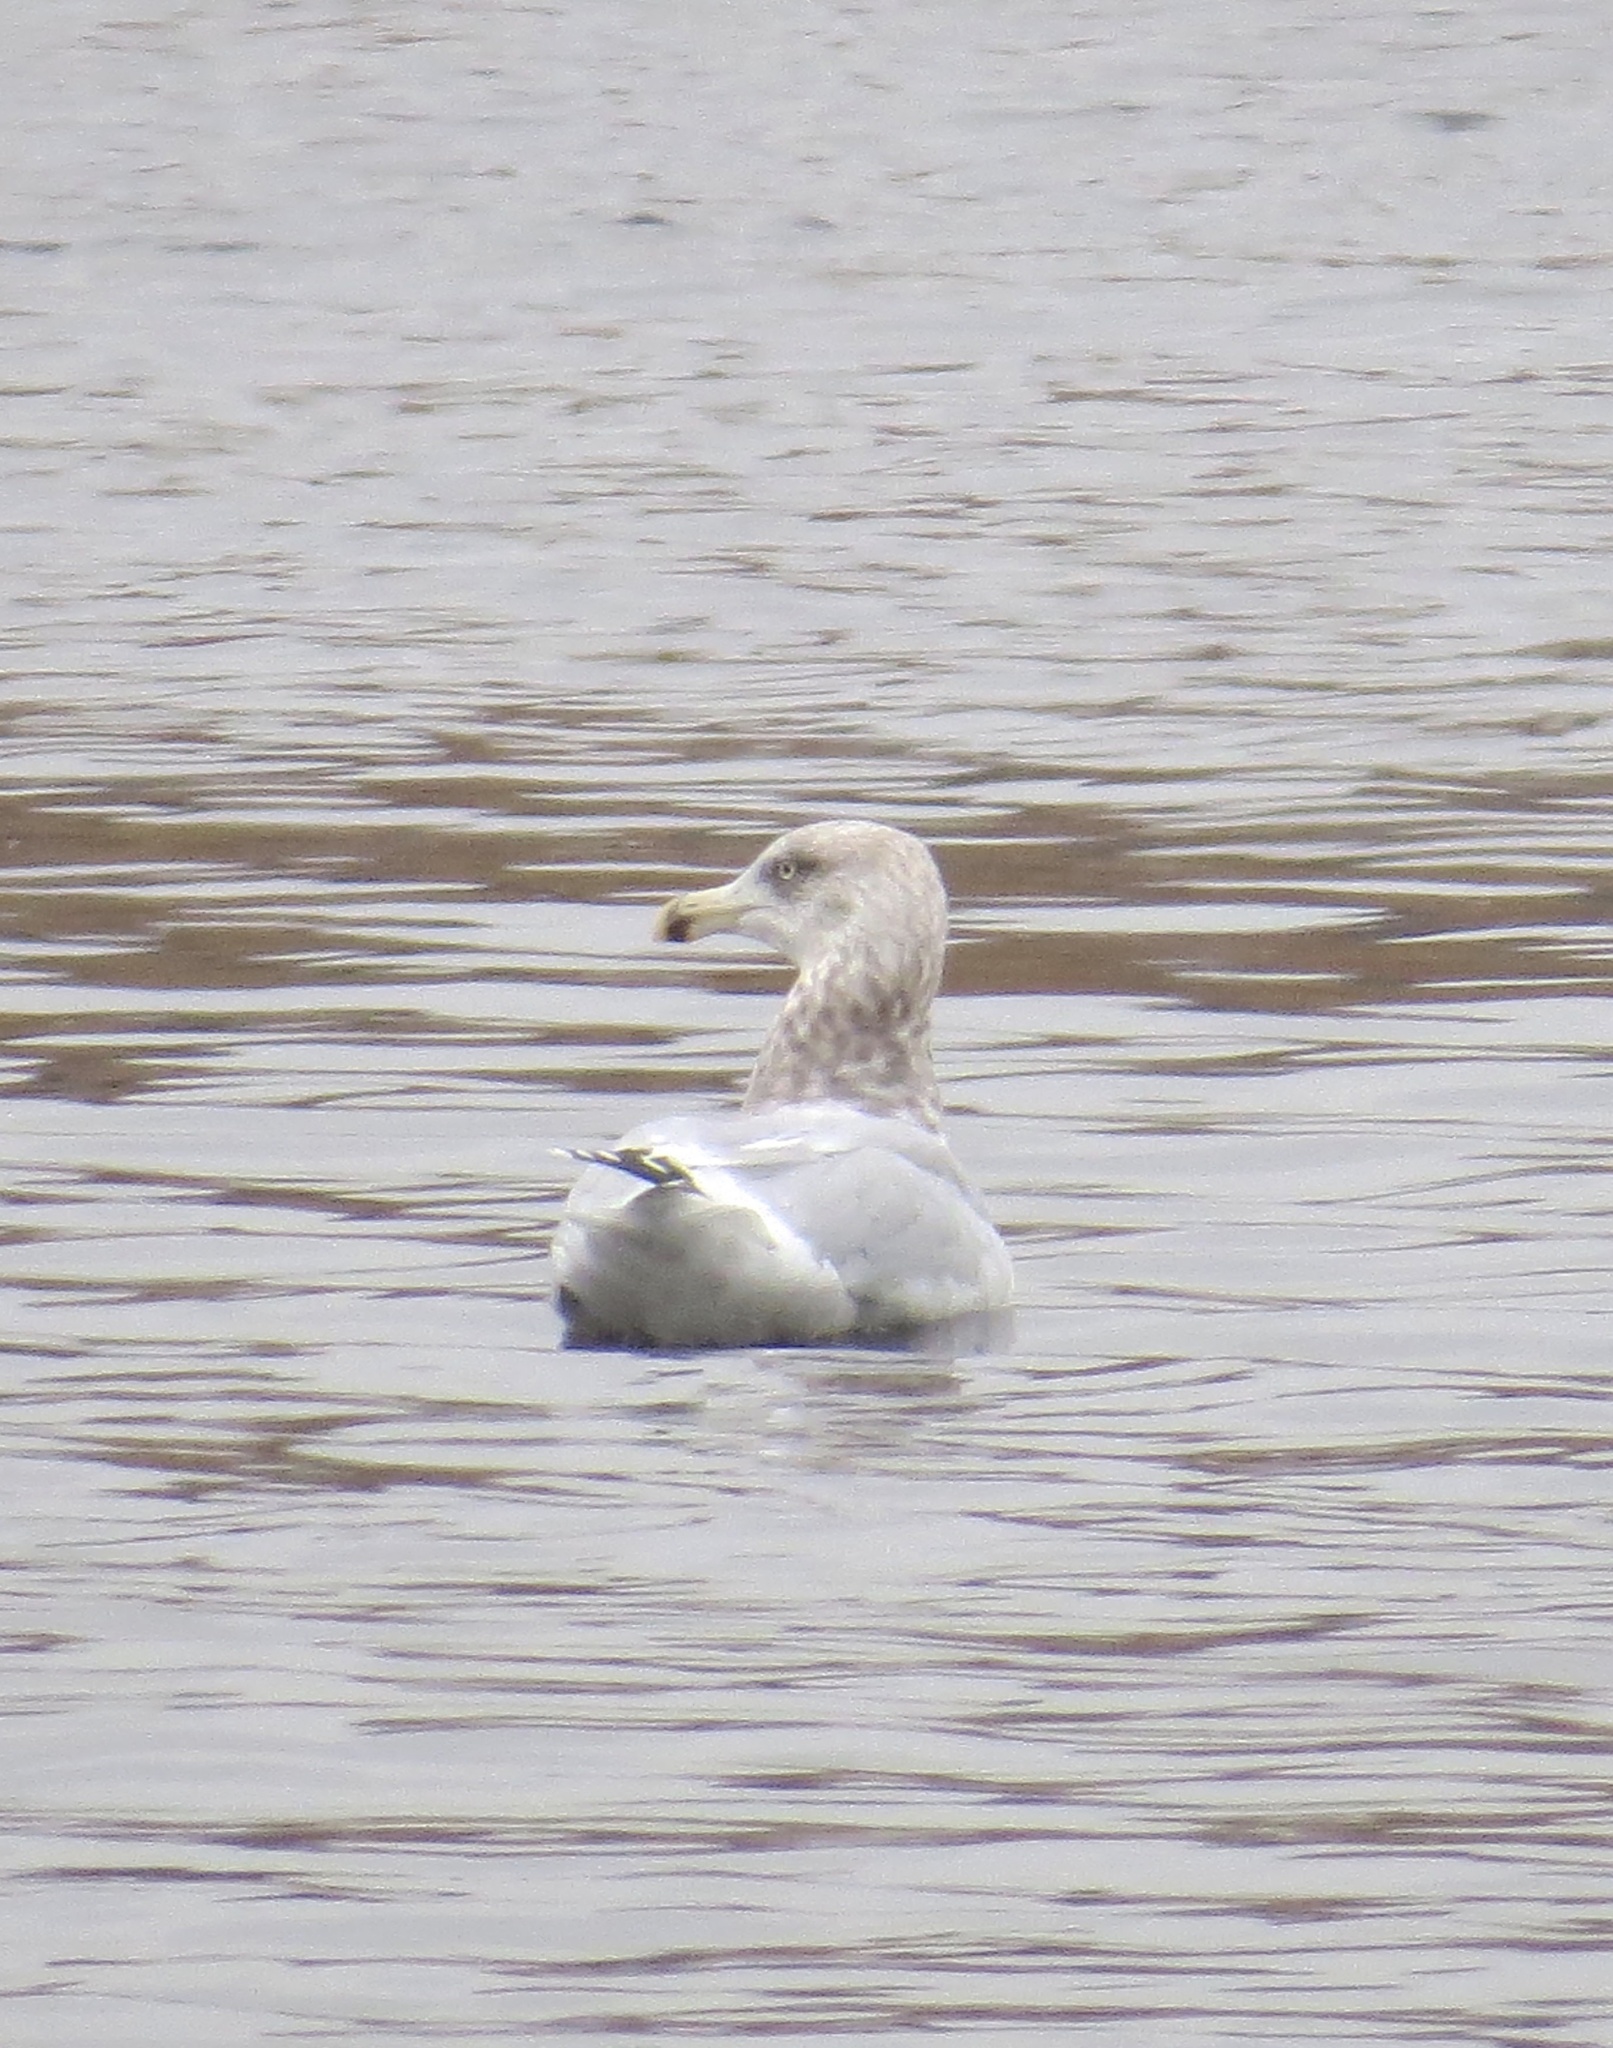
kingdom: Animalia
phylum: Chordata
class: Aves
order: Charadriiformes
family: Laridae
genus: Larus
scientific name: Larus argentatus
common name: Herring gull
